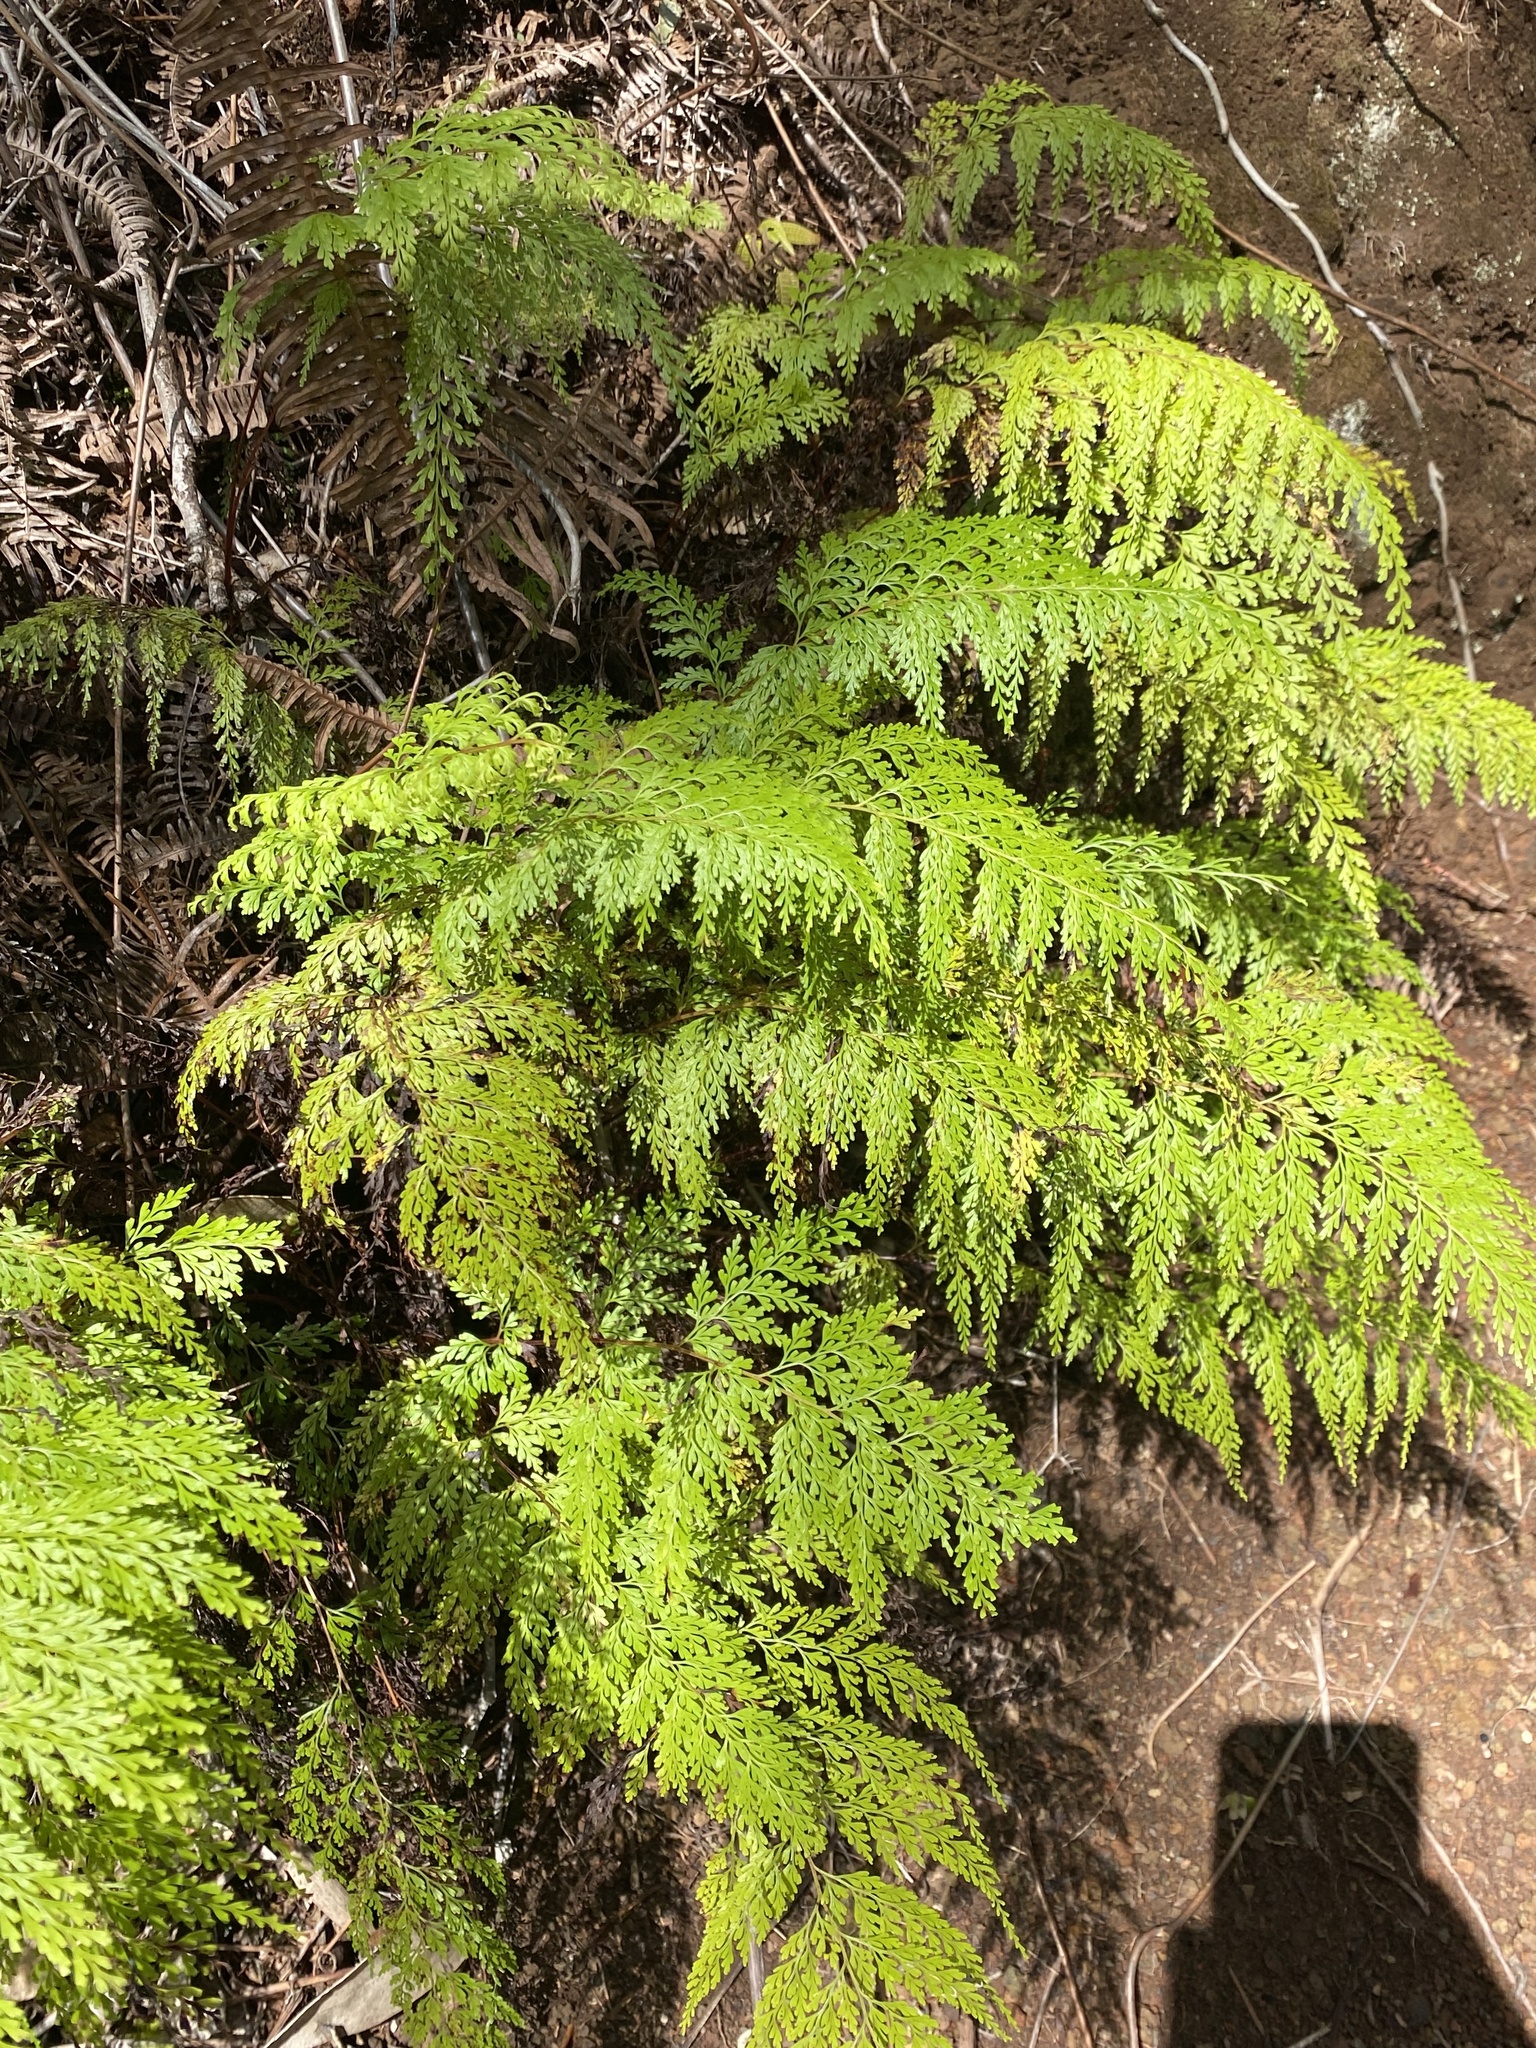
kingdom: Plantae
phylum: Tracheophyta
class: Polypodiopsida
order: Polypodiales
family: Lindsaeaceae
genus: Odontosoria
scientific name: Odontosoria chinensis
